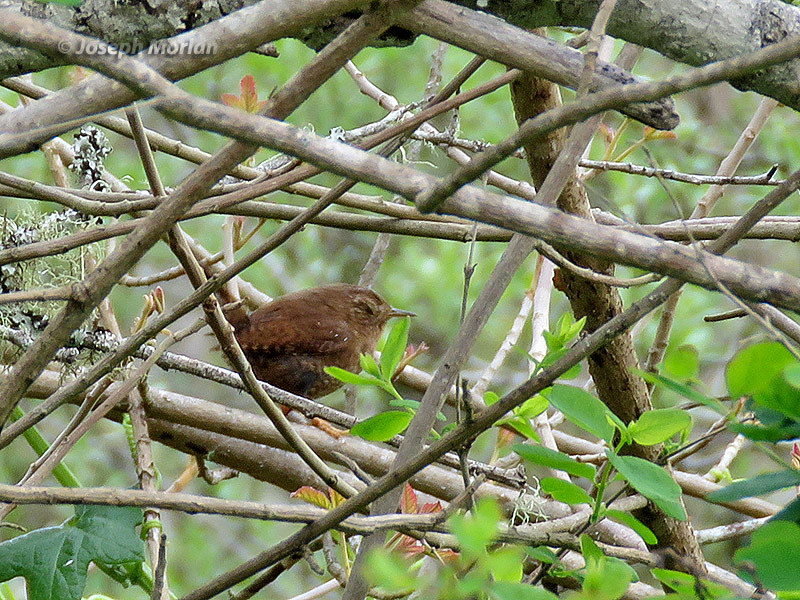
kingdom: Animalia
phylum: Chordata
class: Aves
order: Passeriformes
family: Troglodytidae
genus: Troglodytes
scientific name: Troglodytes pacificus
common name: Pacific wren
